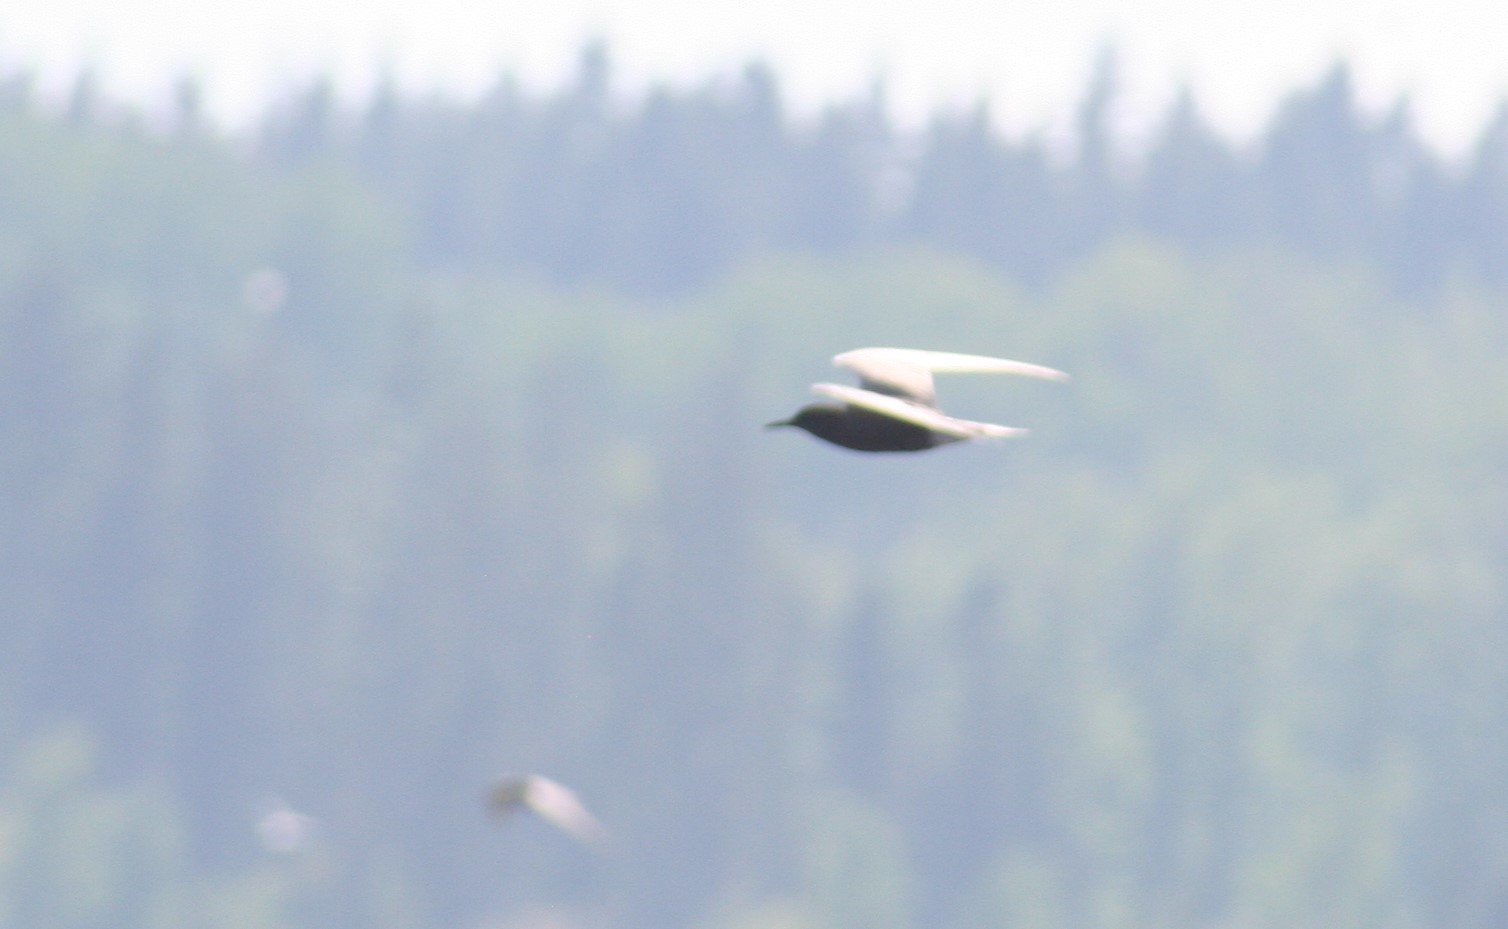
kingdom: Animalia
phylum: Chordata
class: Aves
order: Charadriiformes
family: Laridae
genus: Chlidonias
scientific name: Chlidonias niger
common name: Black tern
